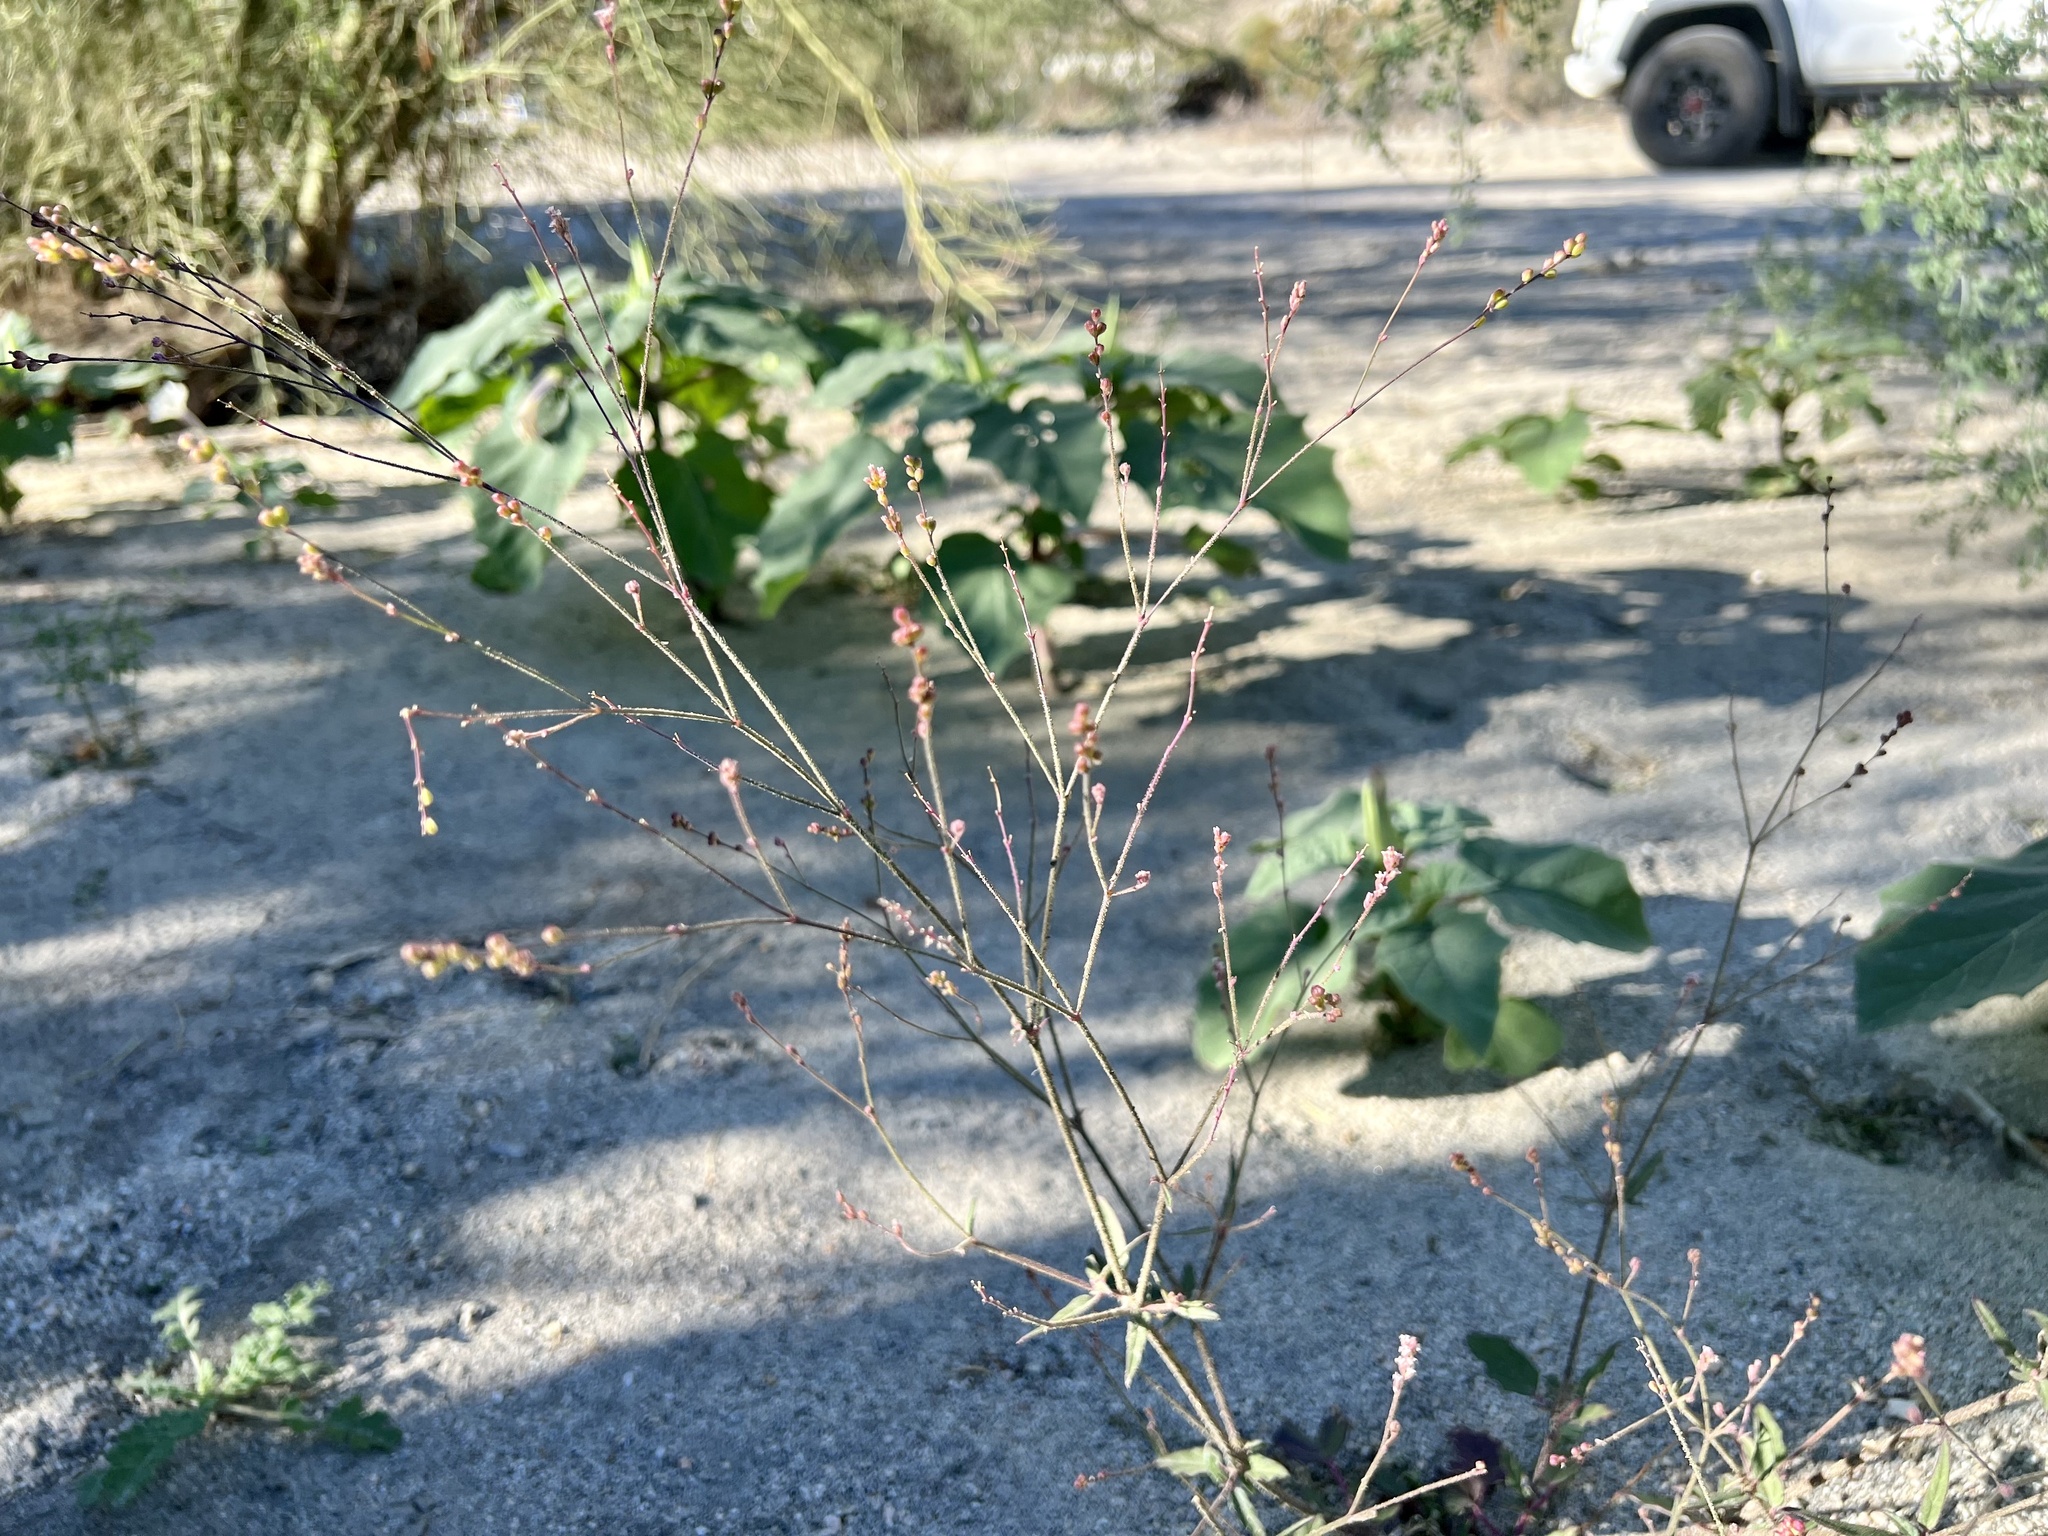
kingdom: Plantae
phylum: Tracheophyta
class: Magnoliopsida
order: Caryophyllales
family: Nyctaginaceae
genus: Boerhavia
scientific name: Boerhavia wrightii
